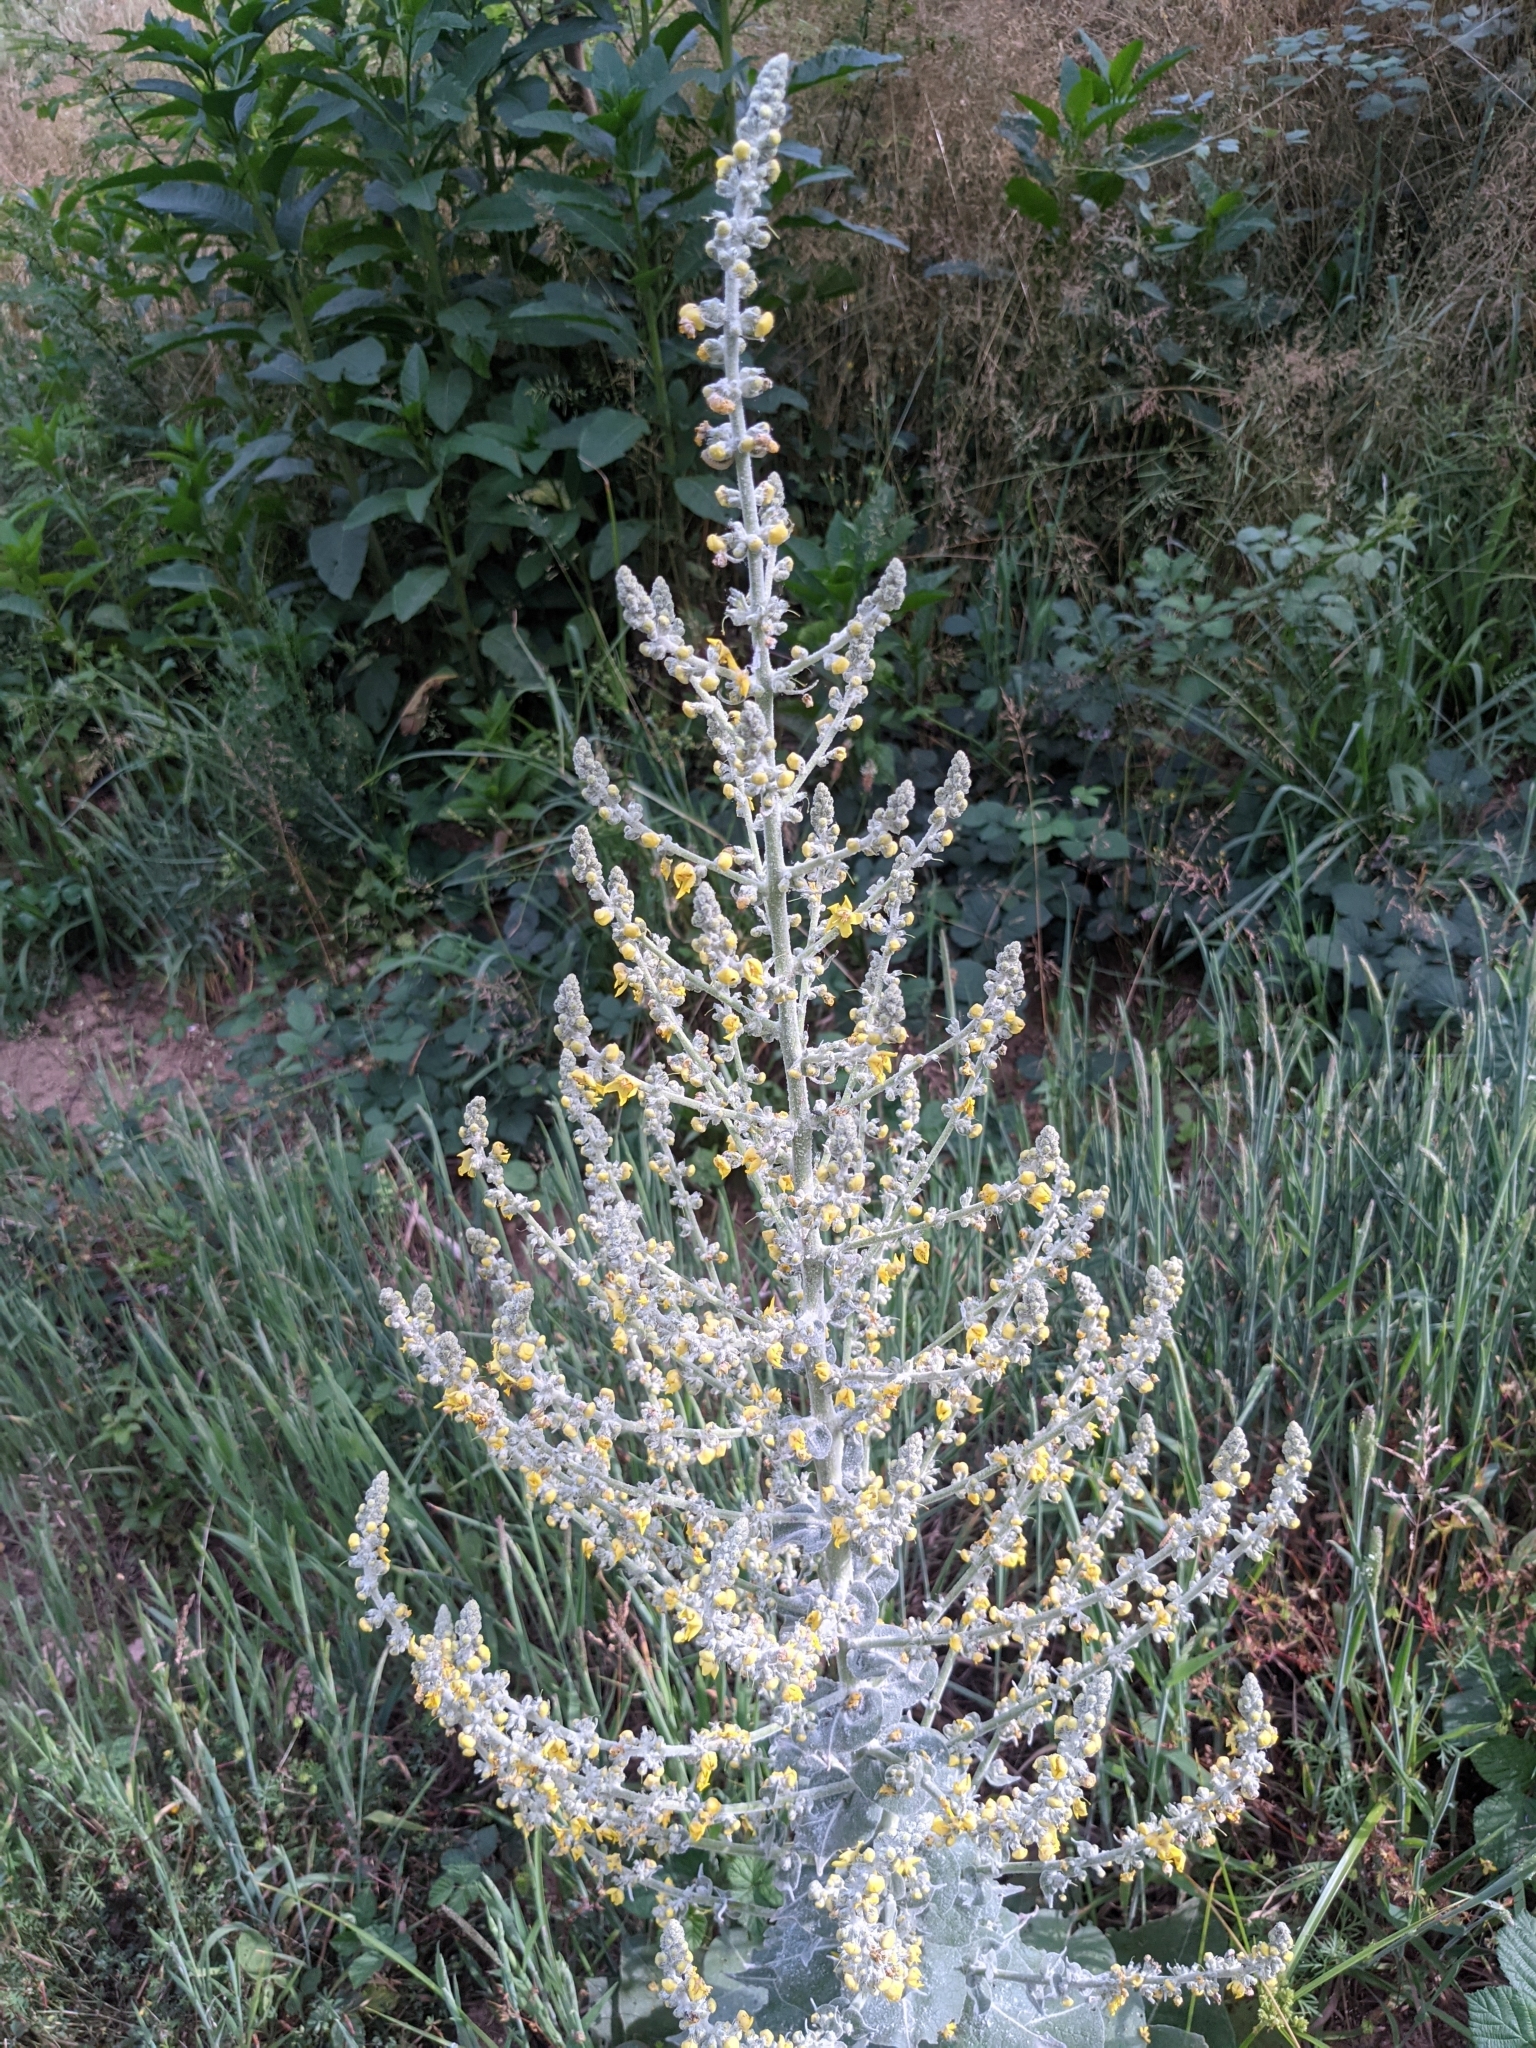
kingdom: Plantae
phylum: Tracheophyta
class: Magnoliopsida
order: Lamiales
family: Scrophulariaceae
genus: Verbascum
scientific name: Verbascum pulverulentum
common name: Broad-leaf mullein
